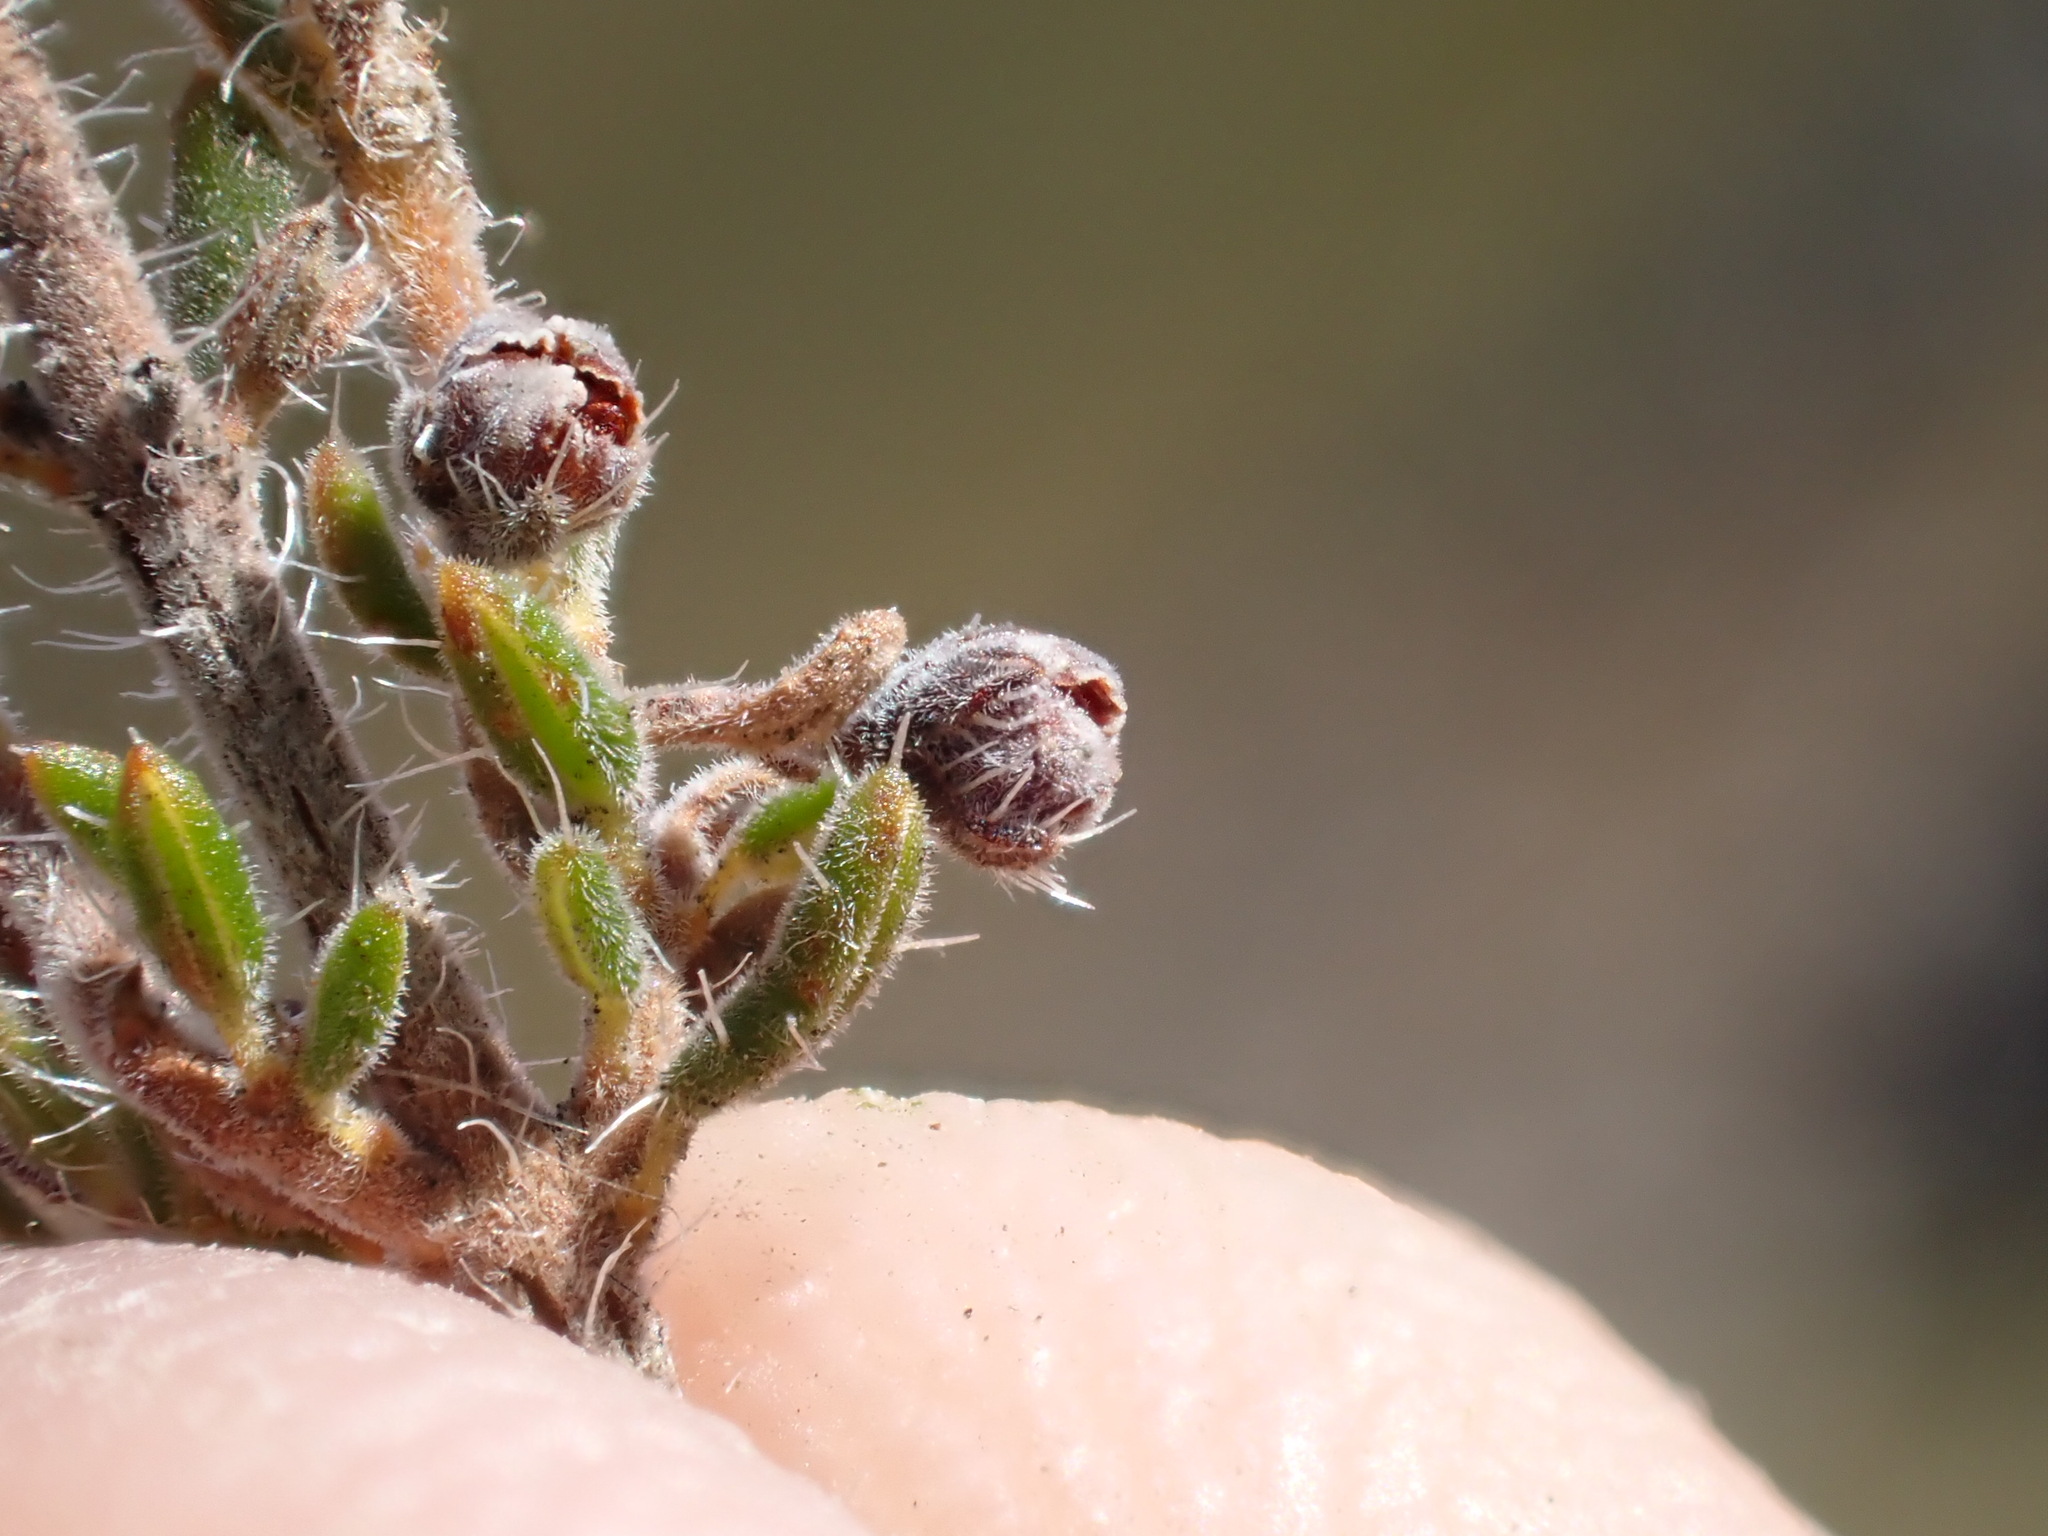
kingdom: Plantae
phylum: Tracheophyta
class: Magnoliopsida
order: Ericales
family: Ericaceae
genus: Erica
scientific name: Erica leucopelta
